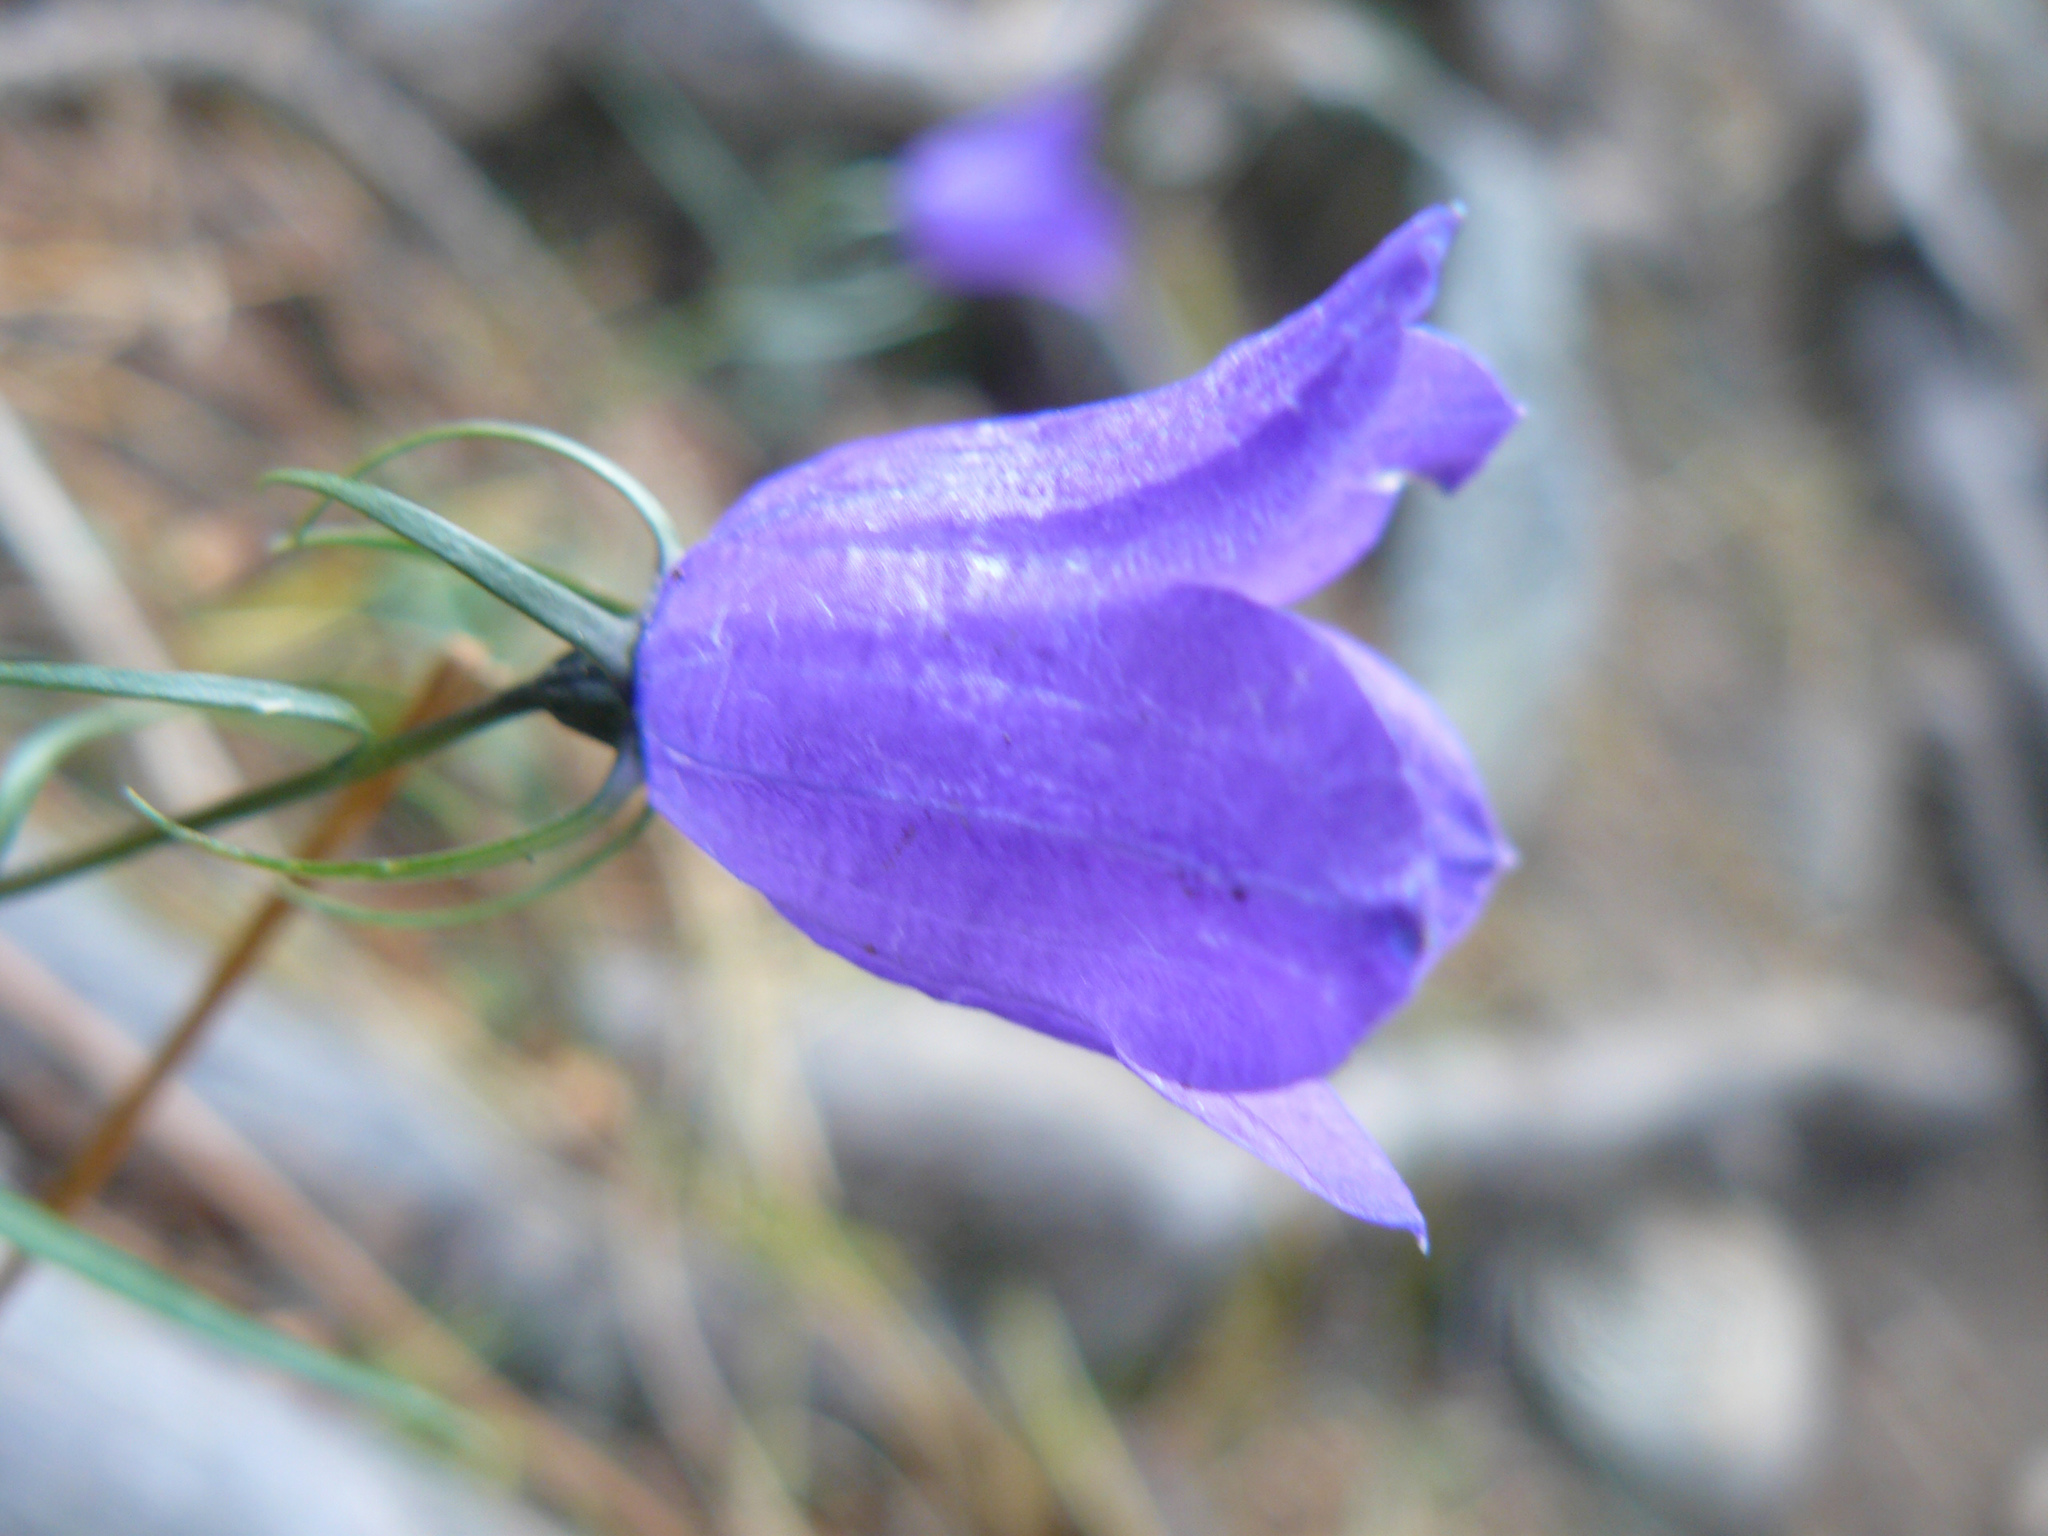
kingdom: Plantae
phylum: Tracheophyta
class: Magnoliopsida
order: Asterales
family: Campanulaceae
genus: Campanula
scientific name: Campanula scheuchzeri
